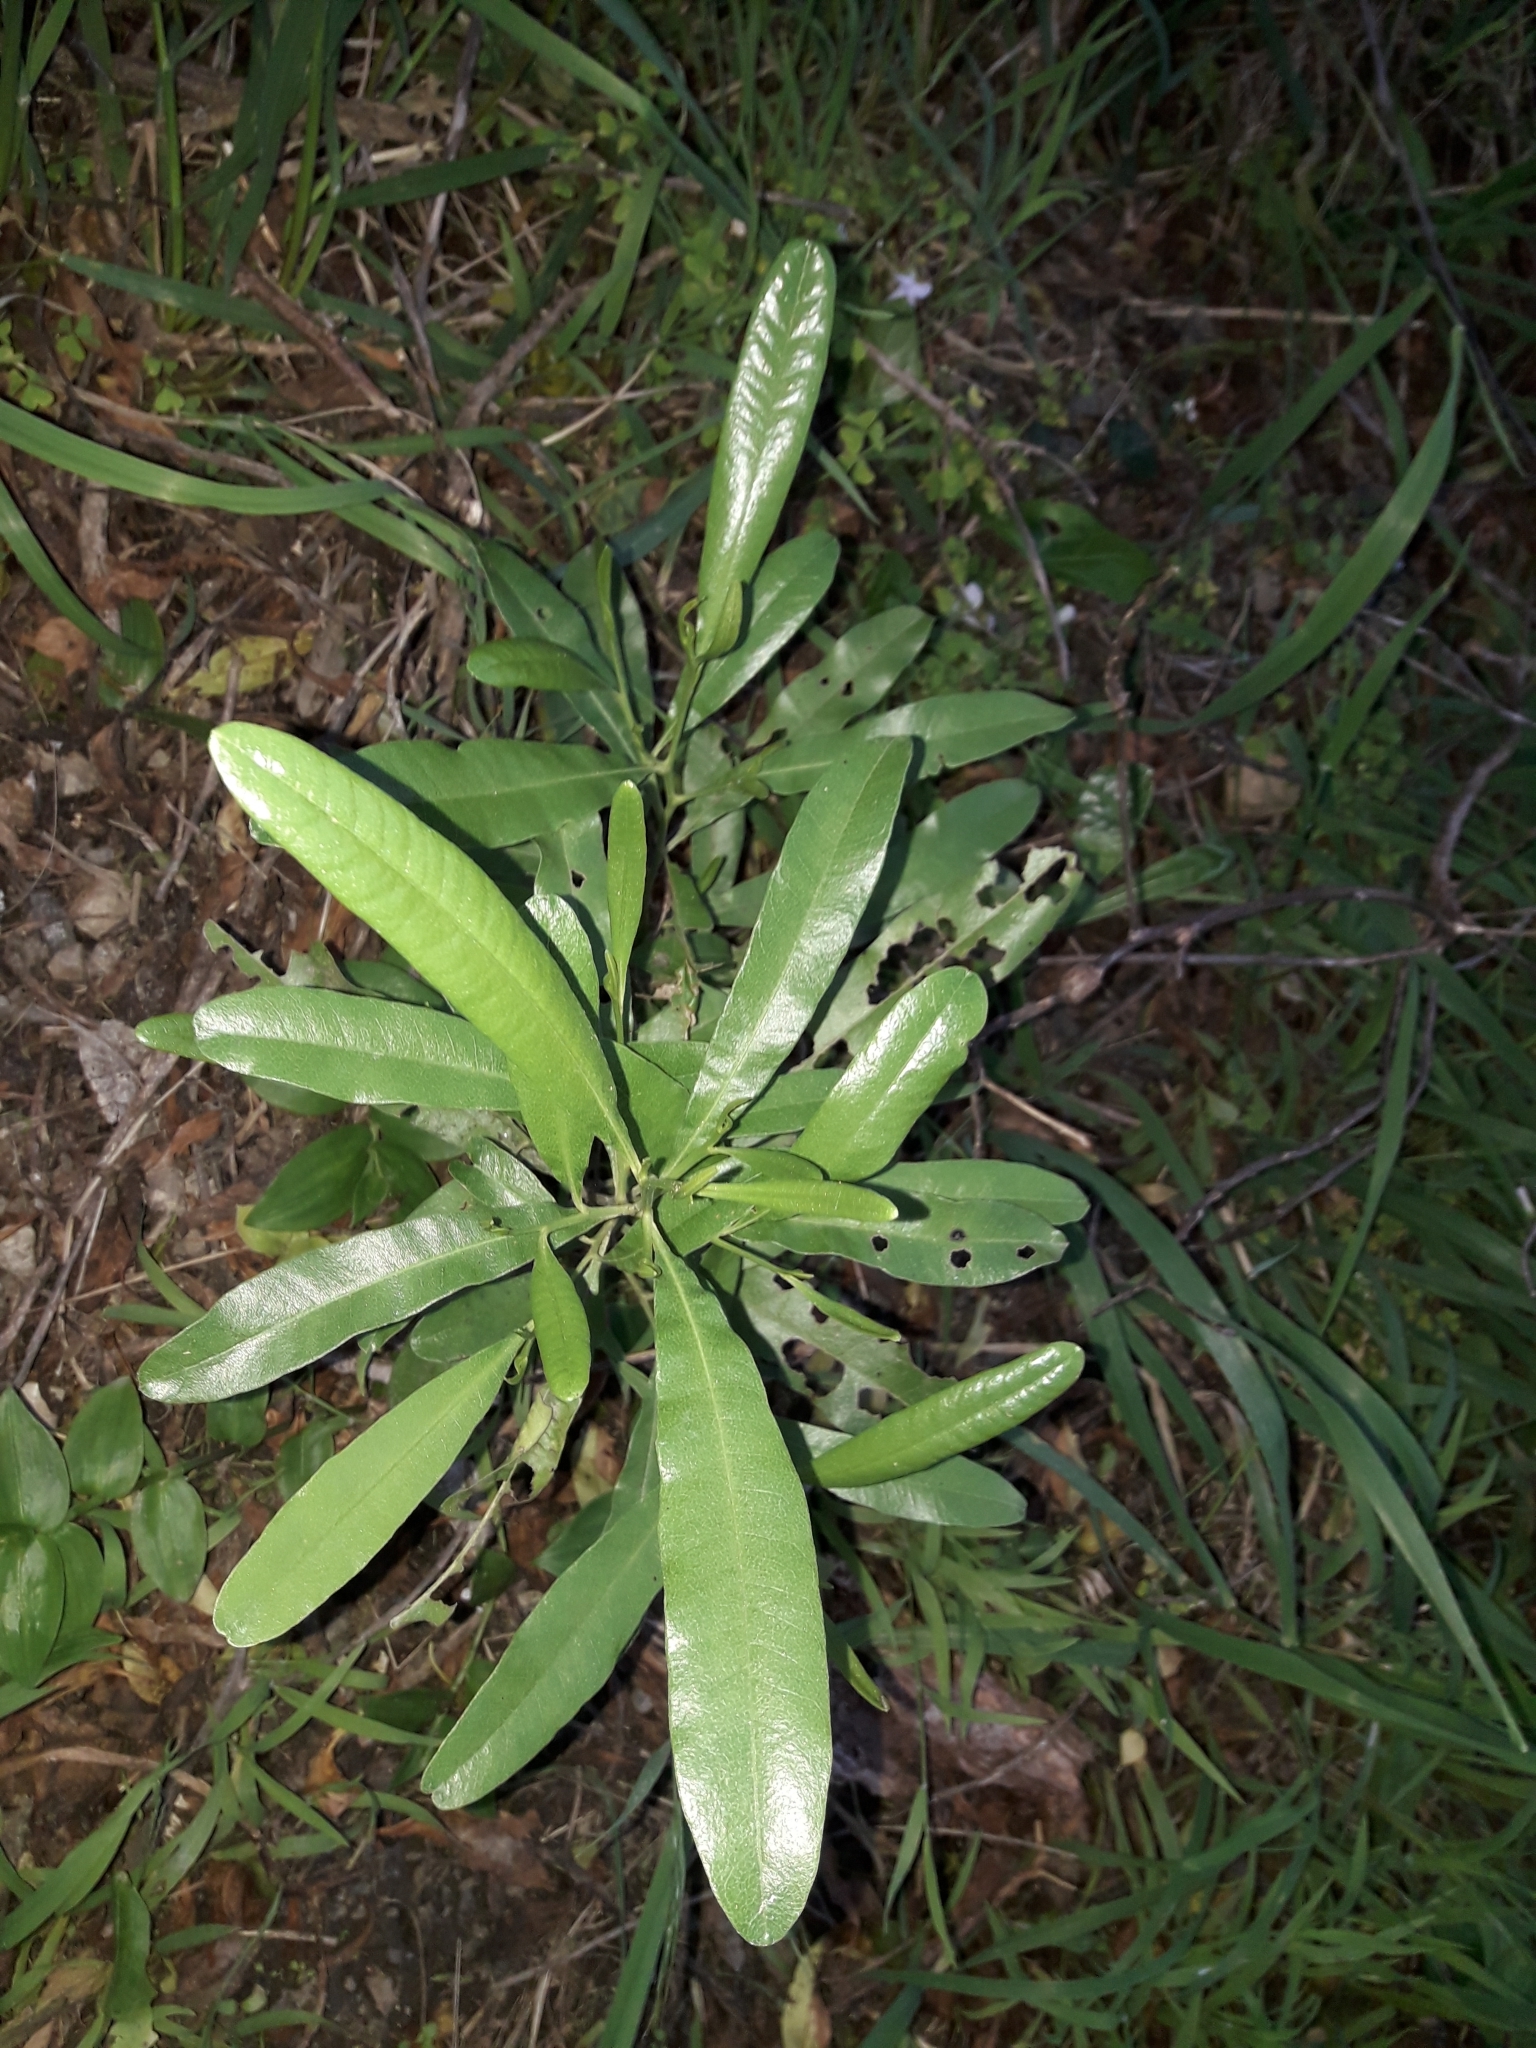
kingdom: Plantae
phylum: Tracheophyta
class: Magnoliopsida
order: Sapindales
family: Sapindaceae
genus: Dodonaea
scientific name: Dodonaea viscosa
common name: Hopbush
